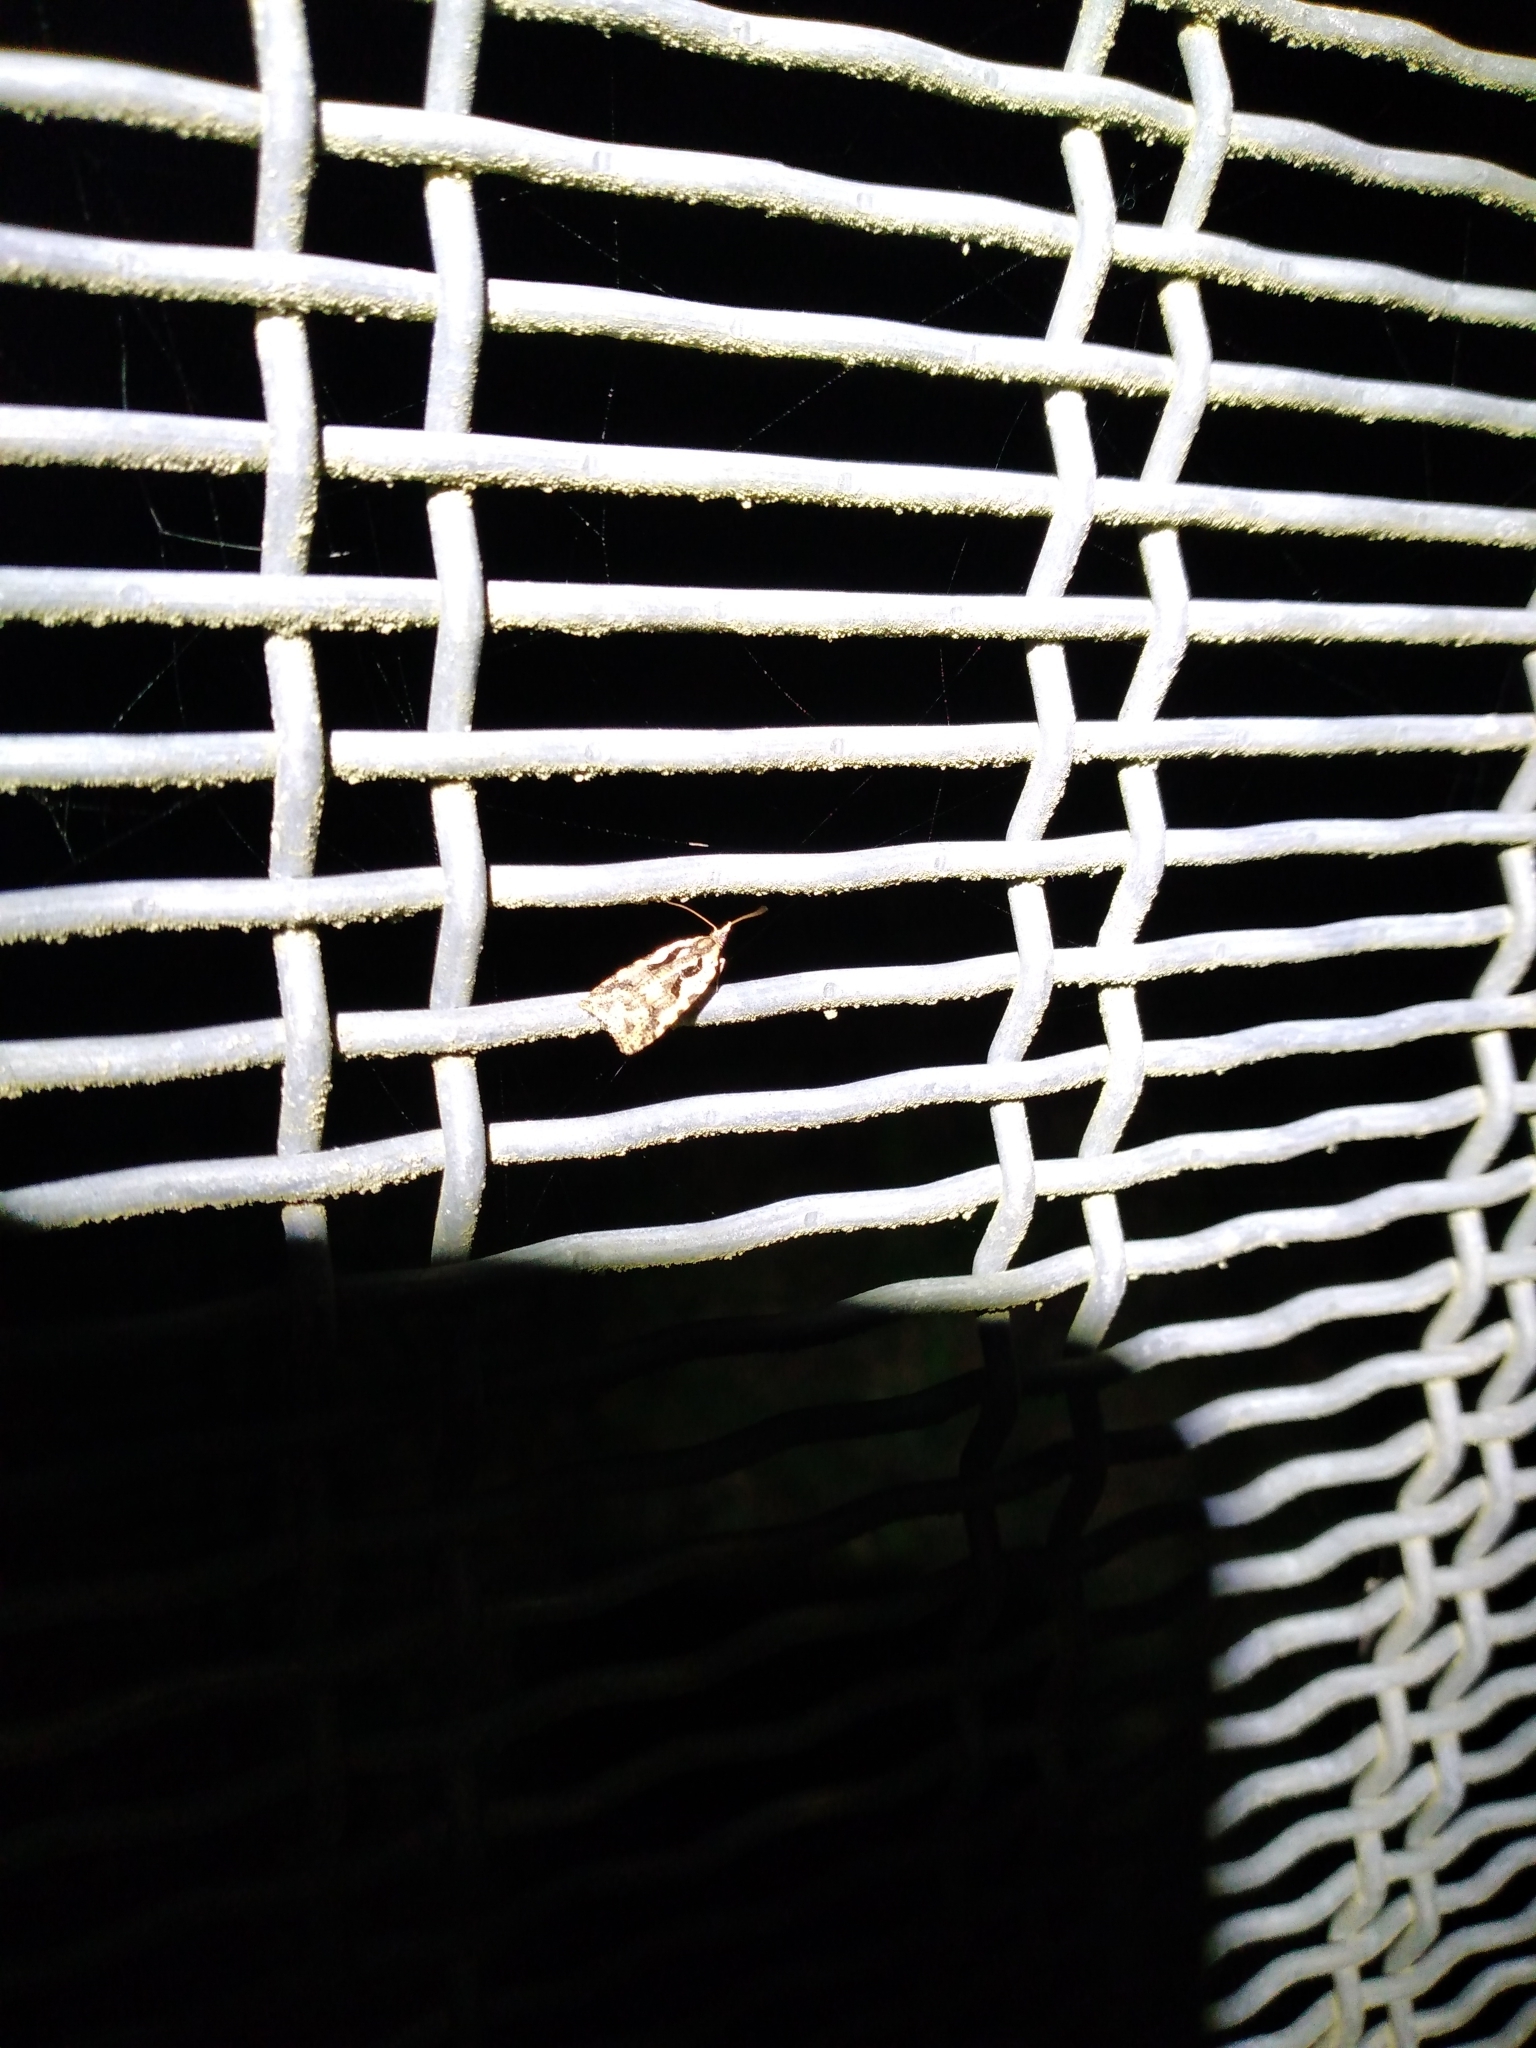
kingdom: Animalia
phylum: Arthropoda
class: Insecta
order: Lepidoptera
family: Tortricidae
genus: Cnephasia
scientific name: Cnephasia jactatana
